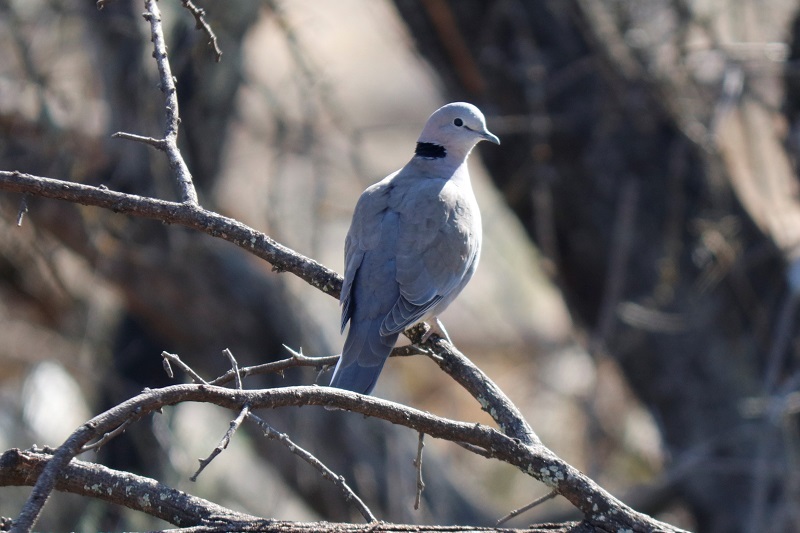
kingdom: Animalia
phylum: Chordata
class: Aves
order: Columbiformes
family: Columbidae
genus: Streptopelia
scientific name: Streptopelia capicola
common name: Ring-necked dove
